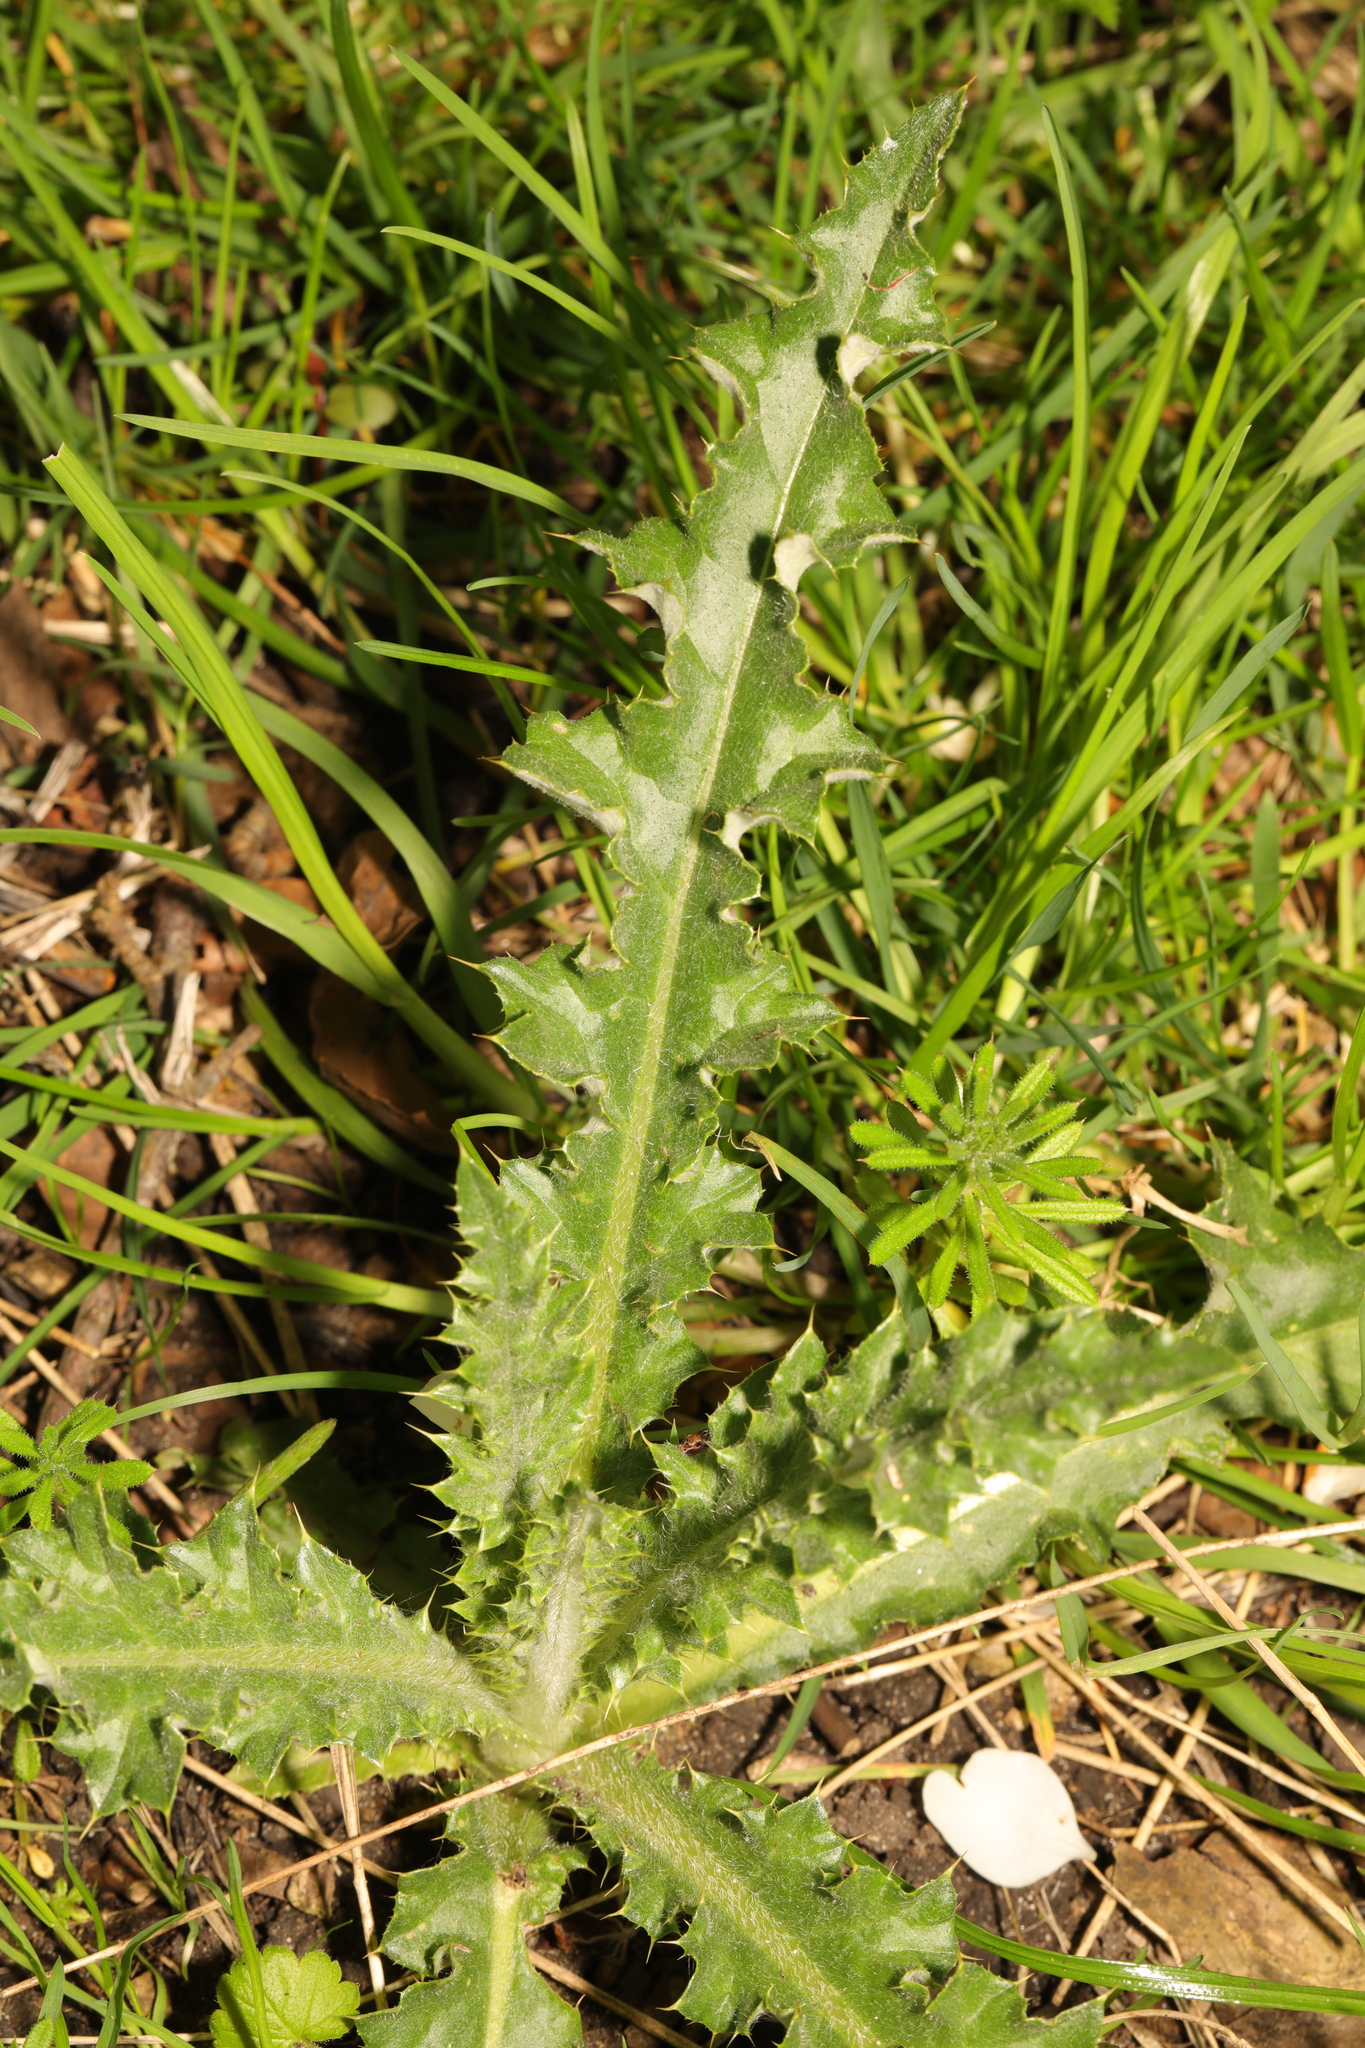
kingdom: Plantae
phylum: Tracheophyta
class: Magnoliopsida
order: Asterales
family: Asteraceae
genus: Cirsium
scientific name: Cirsium arvense
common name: Creeping thistle
